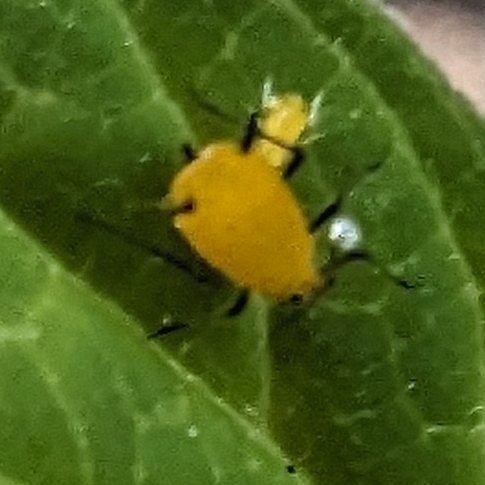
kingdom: Animalia
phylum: Arthropoda
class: Insecta
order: Hemiptera
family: Aphididae
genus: Aphis
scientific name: Aphis nerii
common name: Oleander aphid
